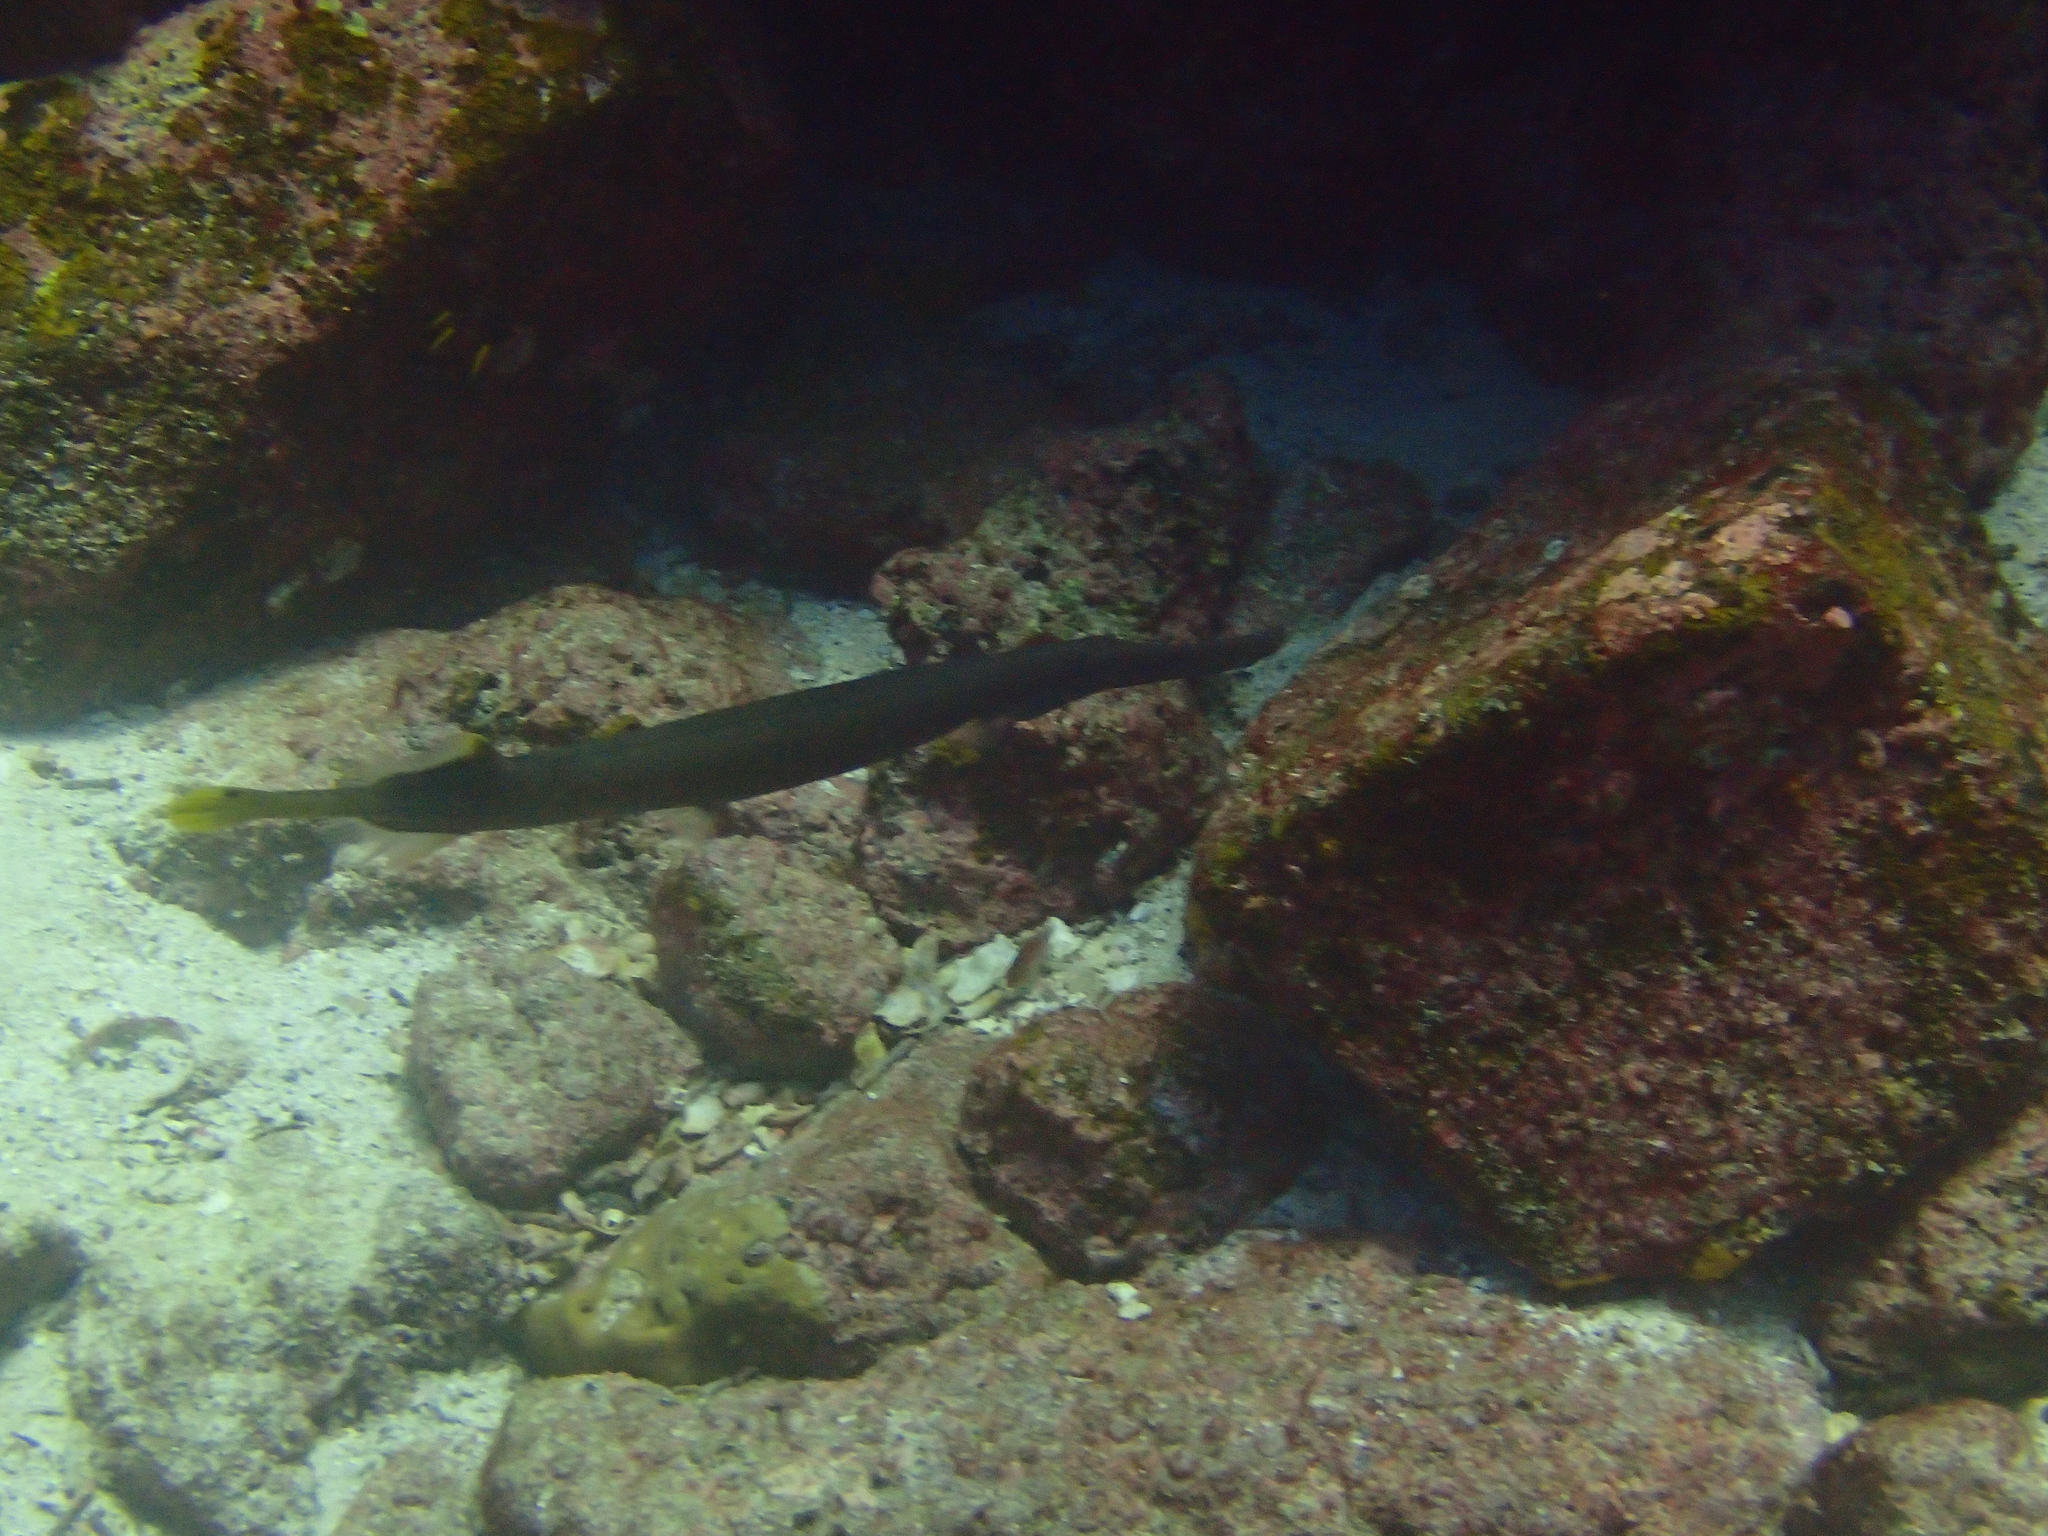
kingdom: Animalia
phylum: Chordata
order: Syngnathiformes
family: Aulostomidae
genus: Aulostomus
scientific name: Aulostomus chinensis
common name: Chinese trumpetfish
